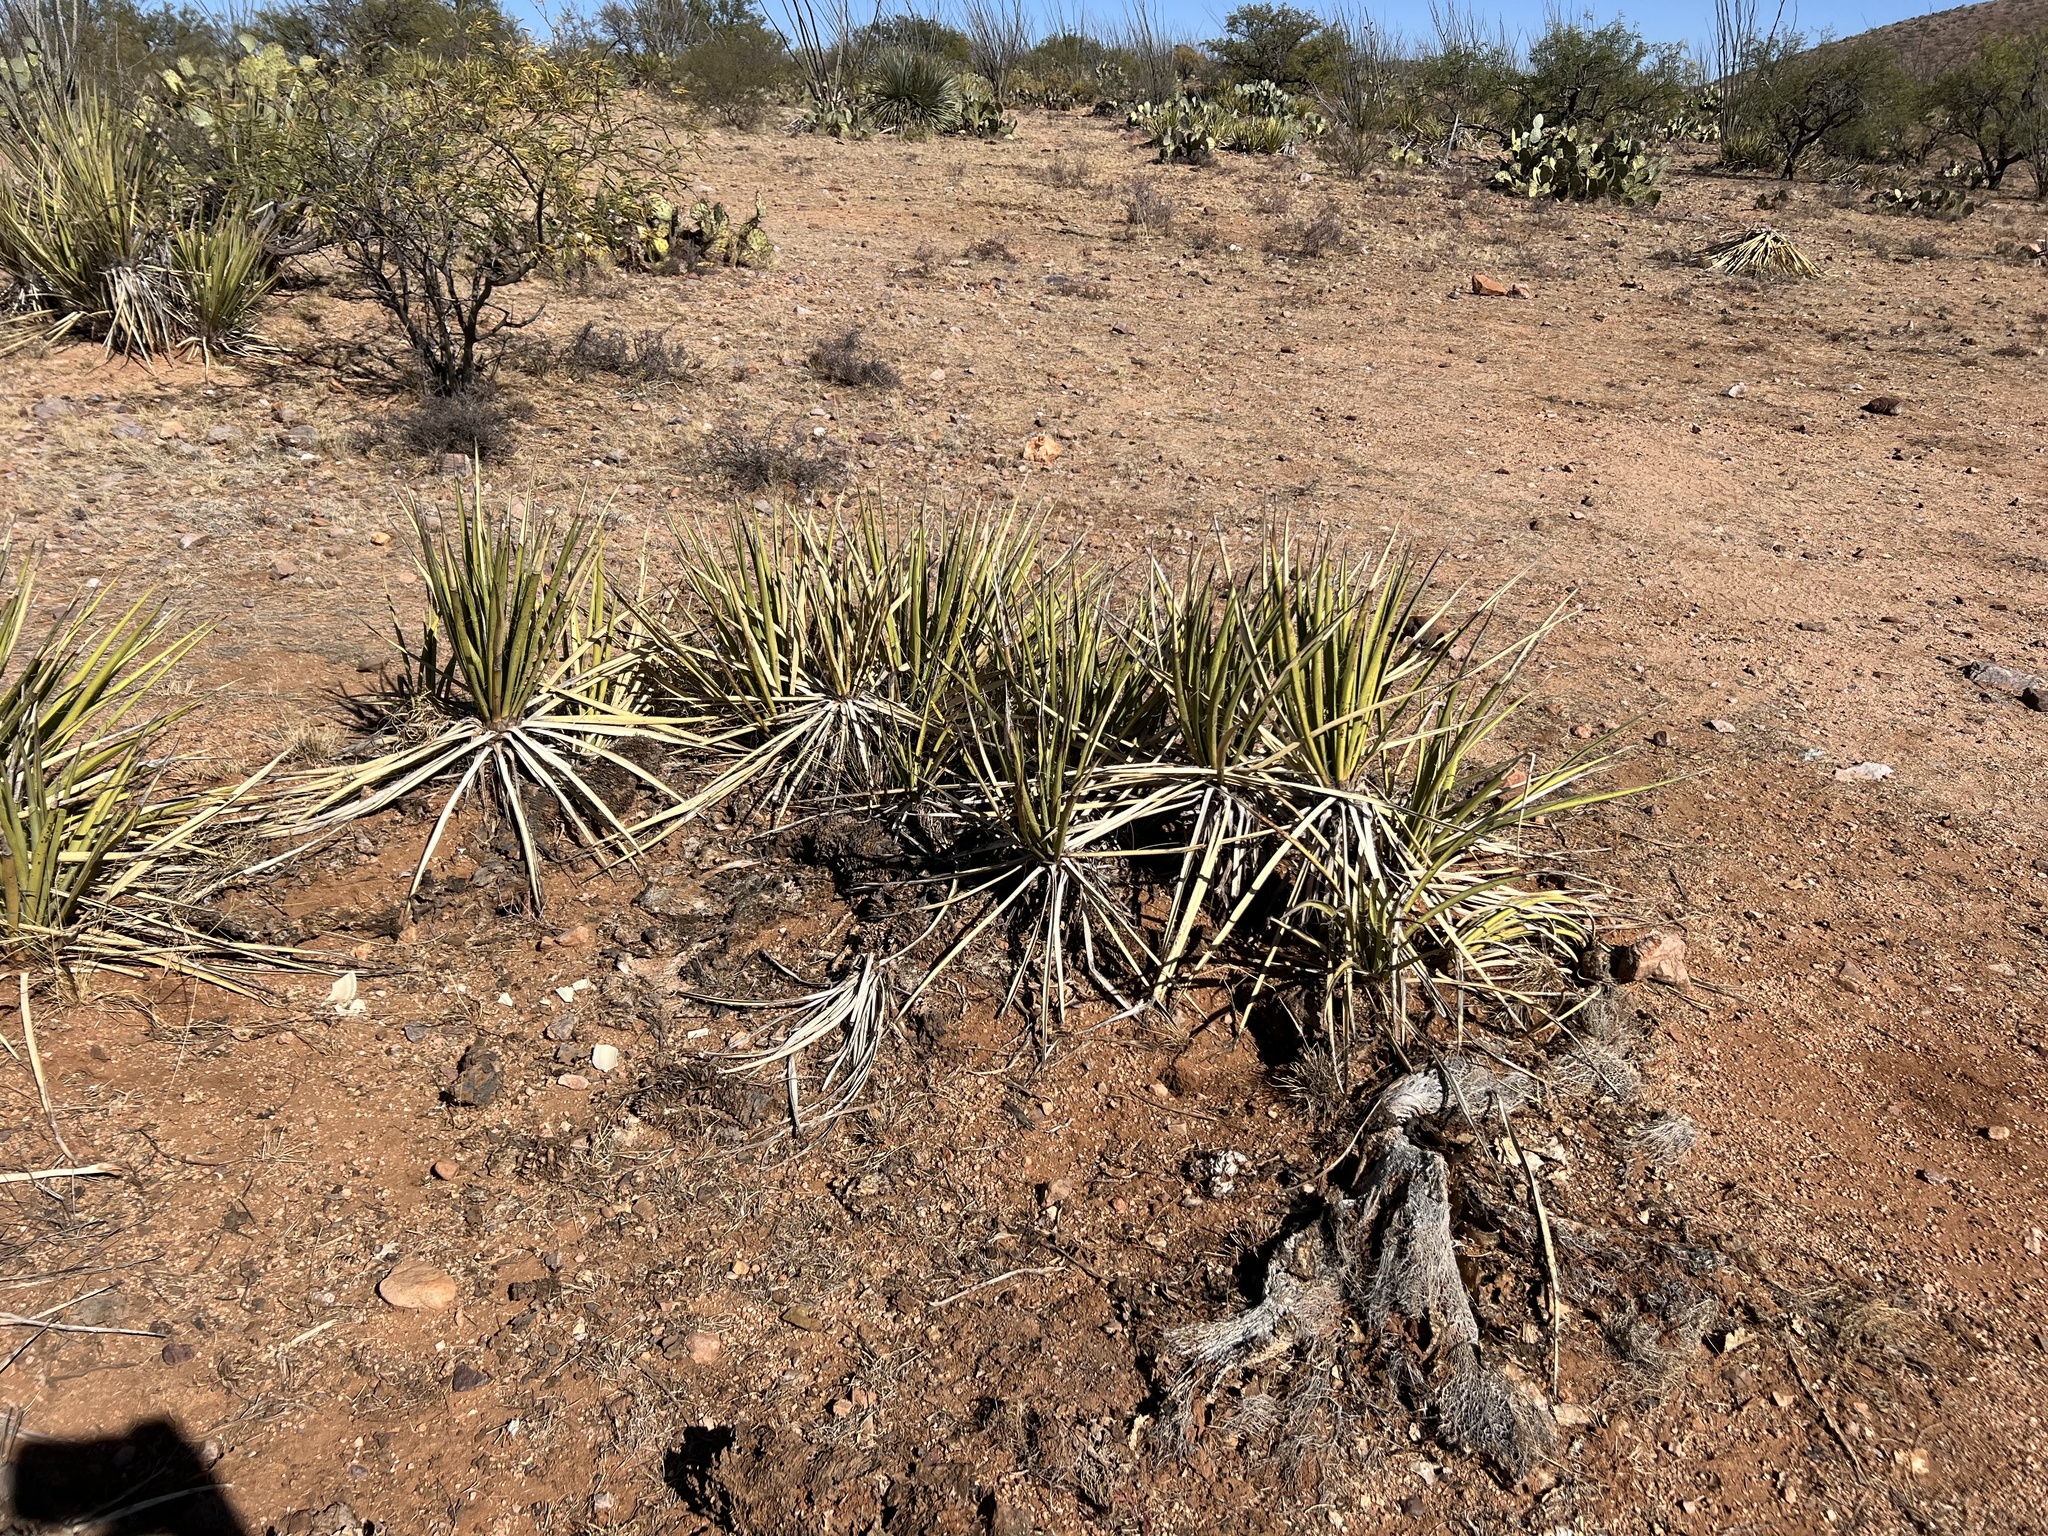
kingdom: Plantae
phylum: Tracheophyta
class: Liliopsida
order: Asparagales
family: Asparagaceae
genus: Yucca
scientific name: Yucca baccata
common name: Banana yucca
